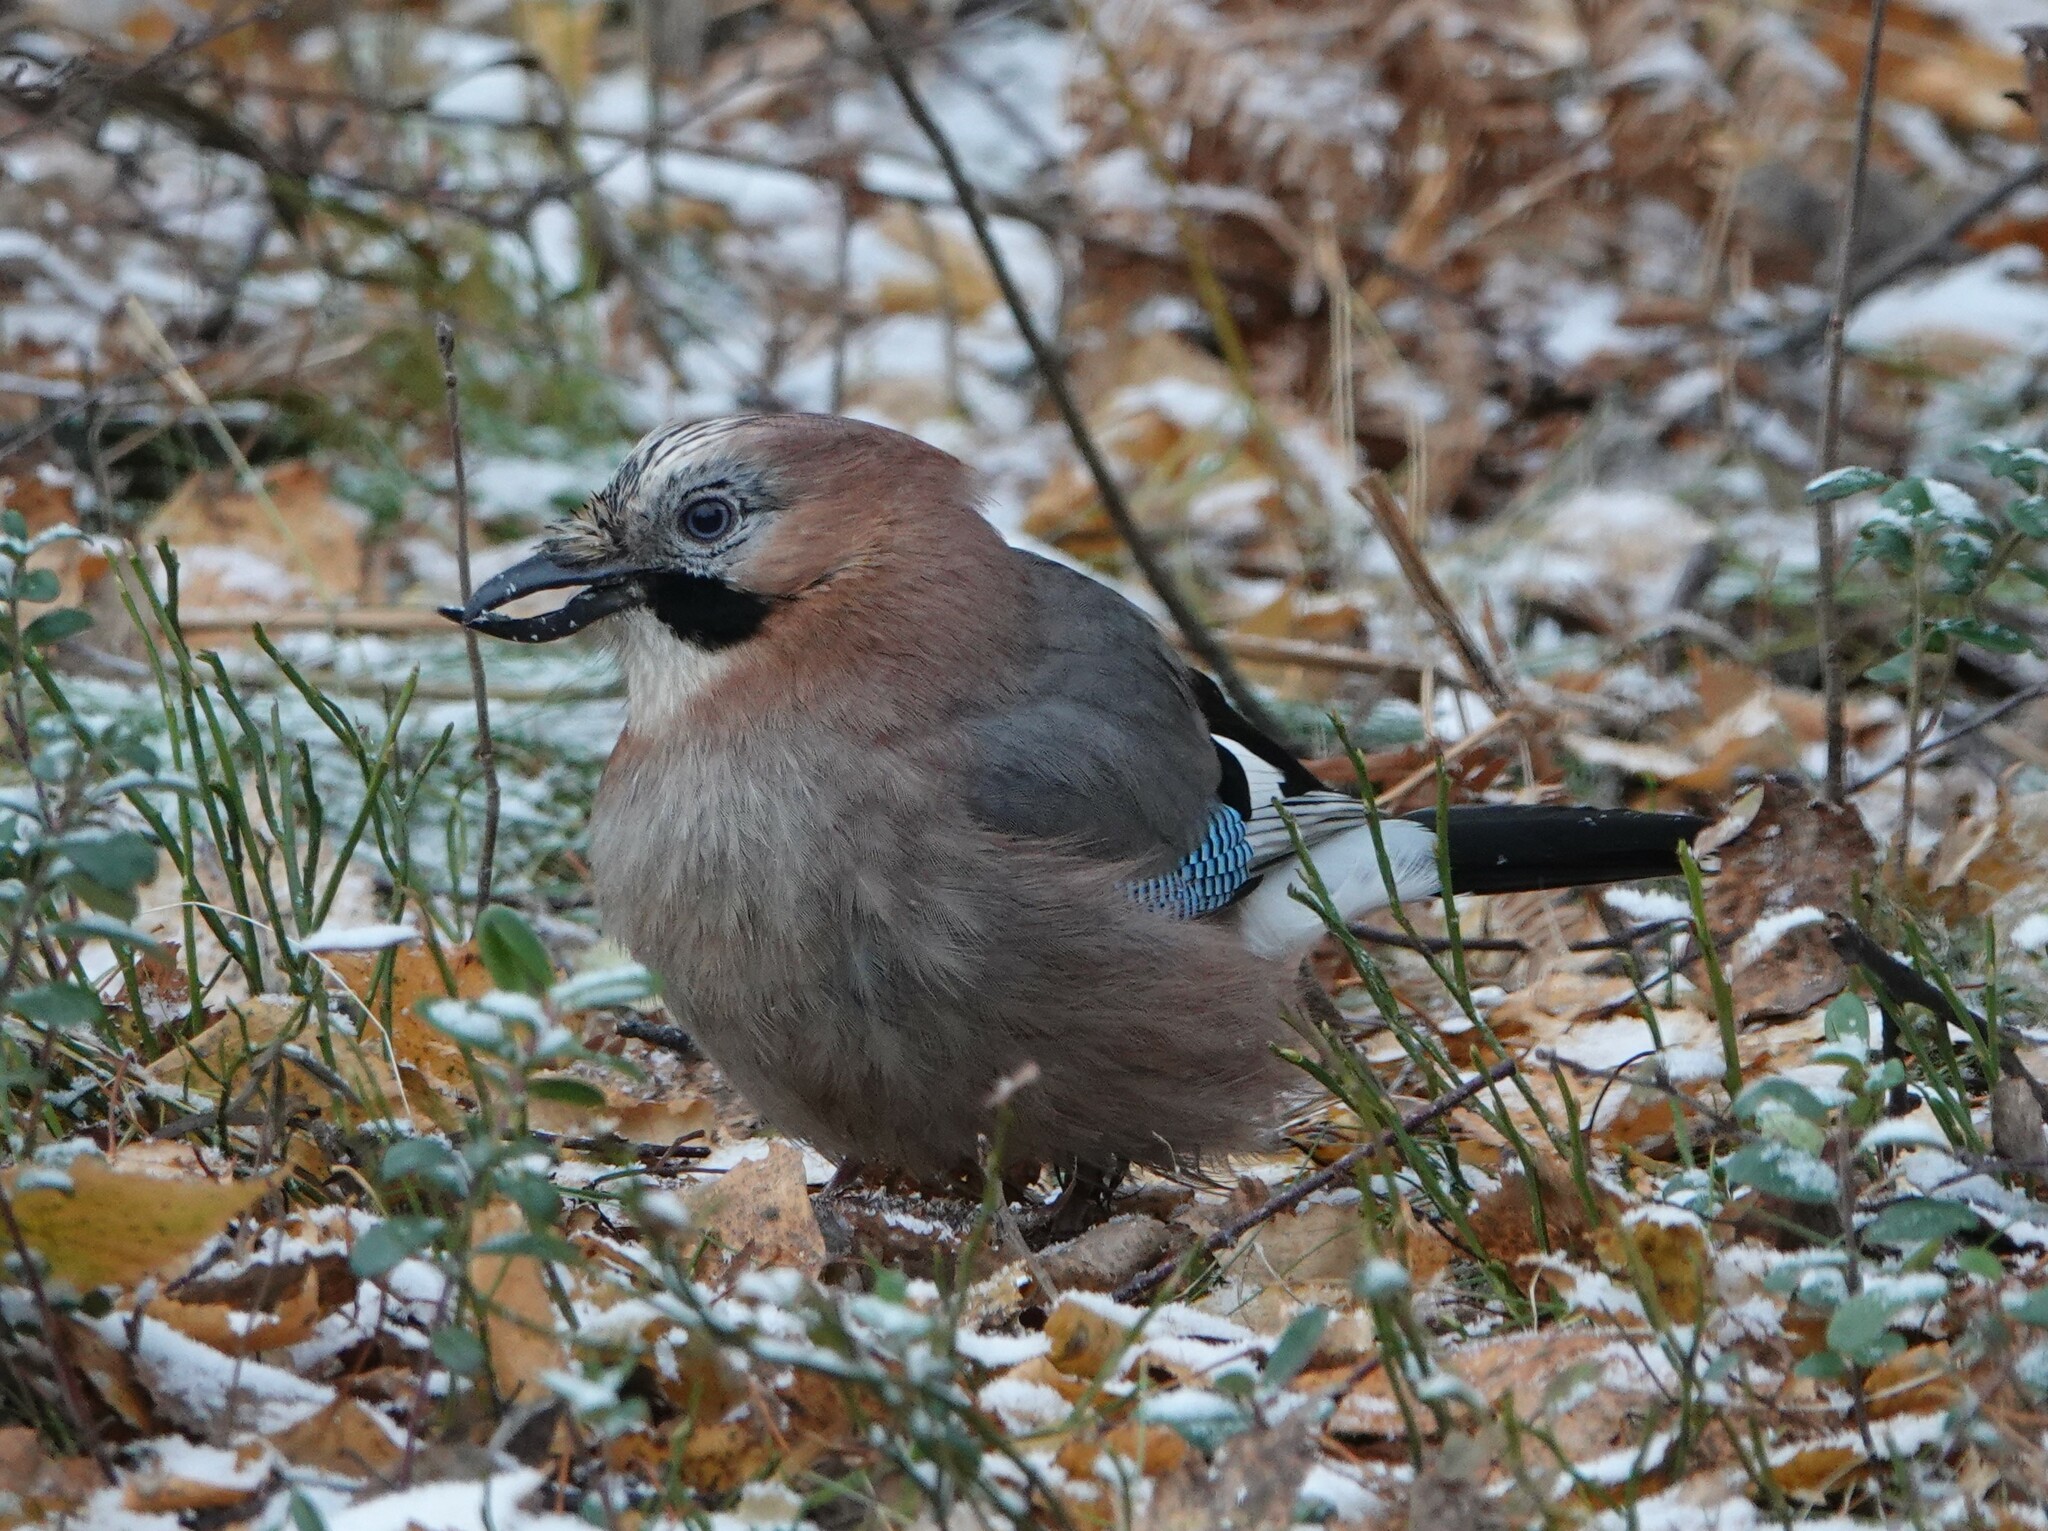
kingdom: Animalia
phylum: Chordata
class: Aves
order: Passeriformes
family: Corvidae
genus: Garrulus
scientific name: Garrulus glandarius
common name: Eurasian jay
